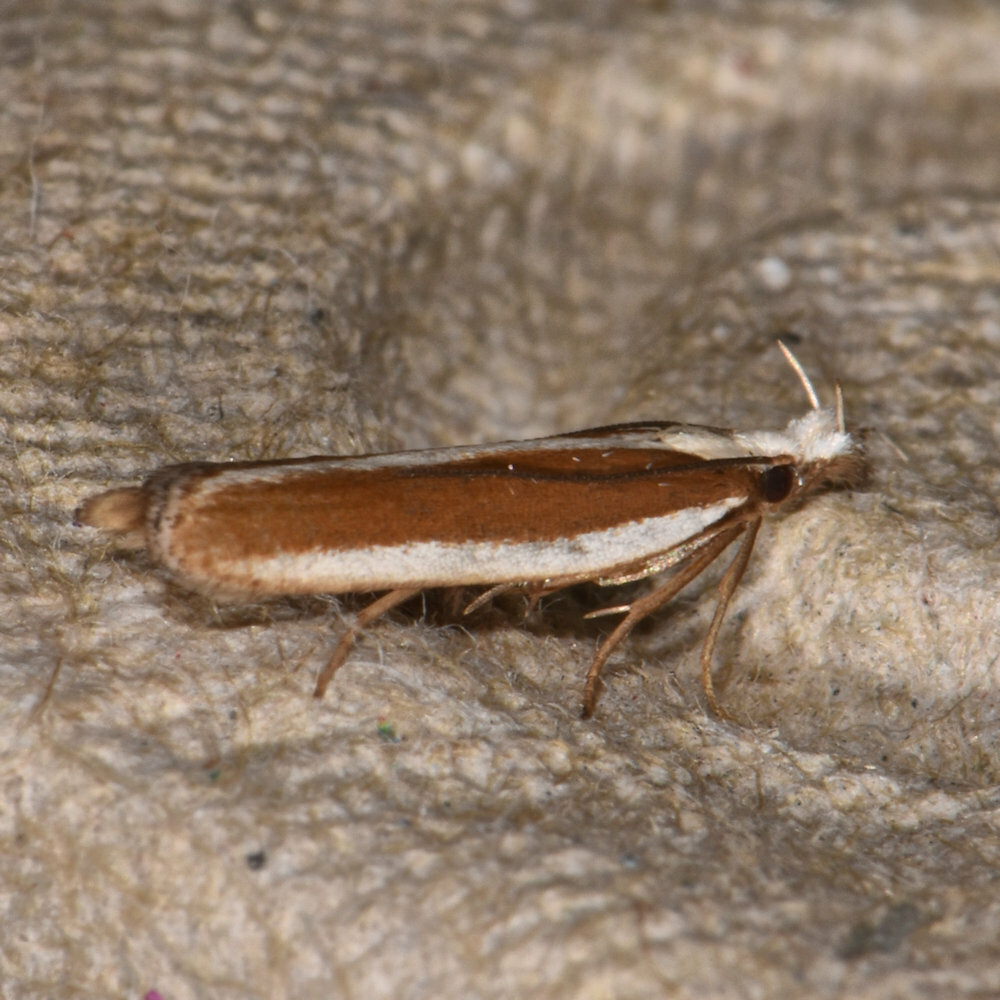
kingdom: Animalia
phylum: Arthropoda
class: Insecta
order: Lepidoptera
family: Gelechiidae
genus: Dichomeris
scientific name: Dichomeris marginella
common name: Juniper webworm
